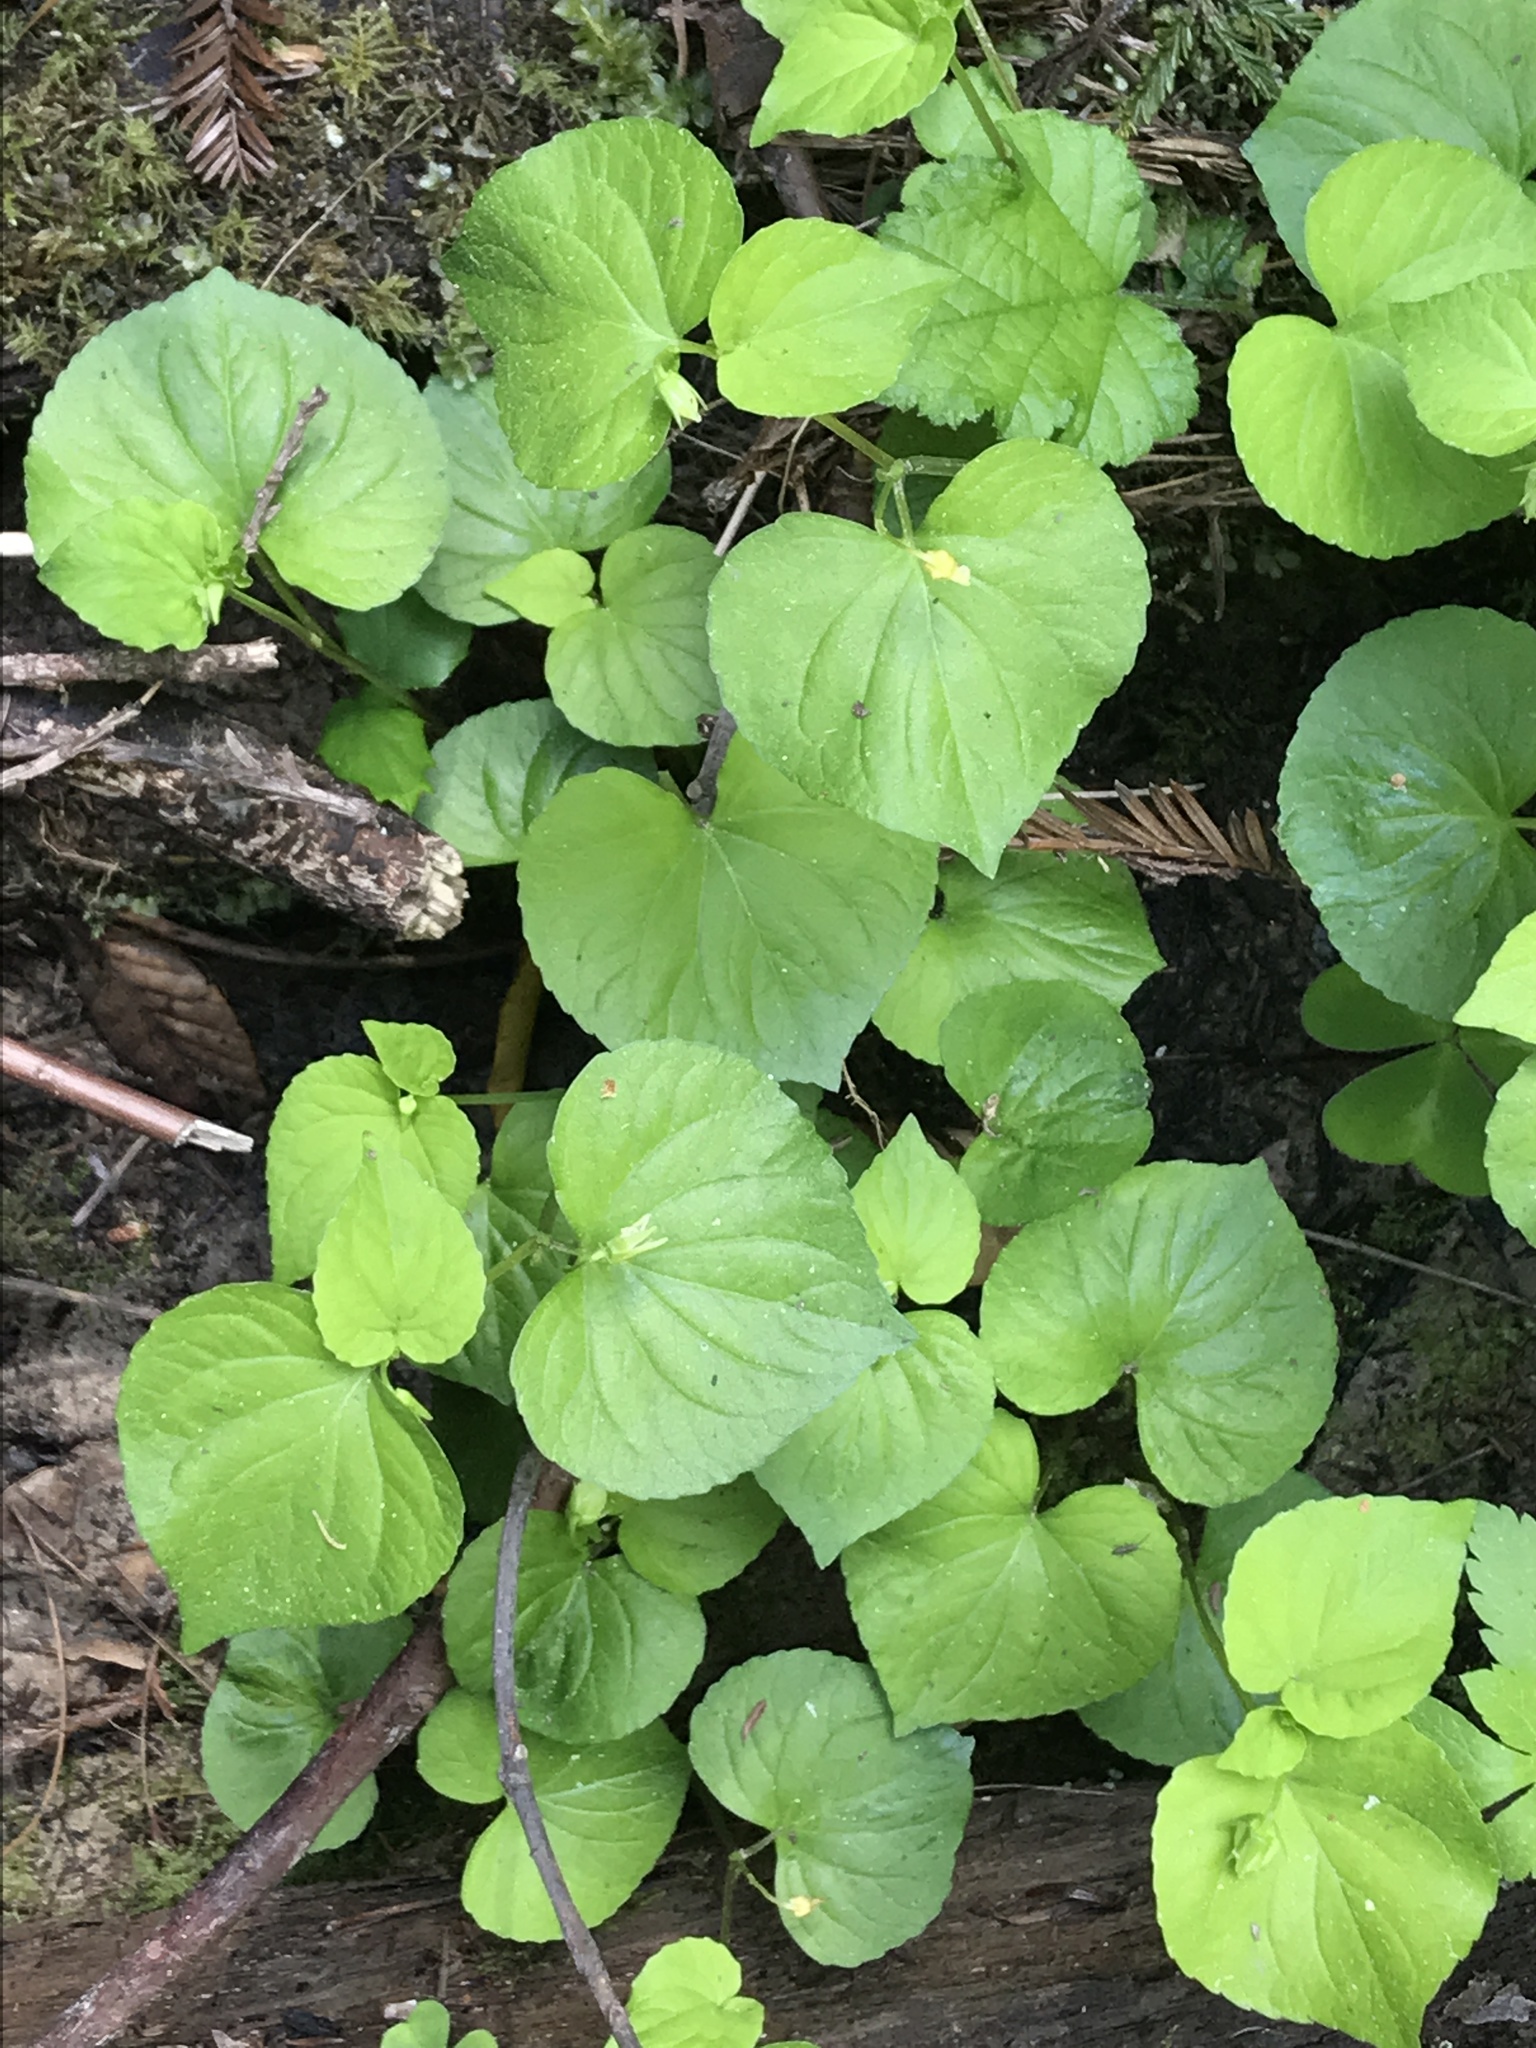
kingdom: Plantae
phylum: Tracheophyta
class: Magnoliopsida
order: Malpighiales
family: Violaceae
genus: Viola
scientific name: Viola glabella
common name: Stream violet
